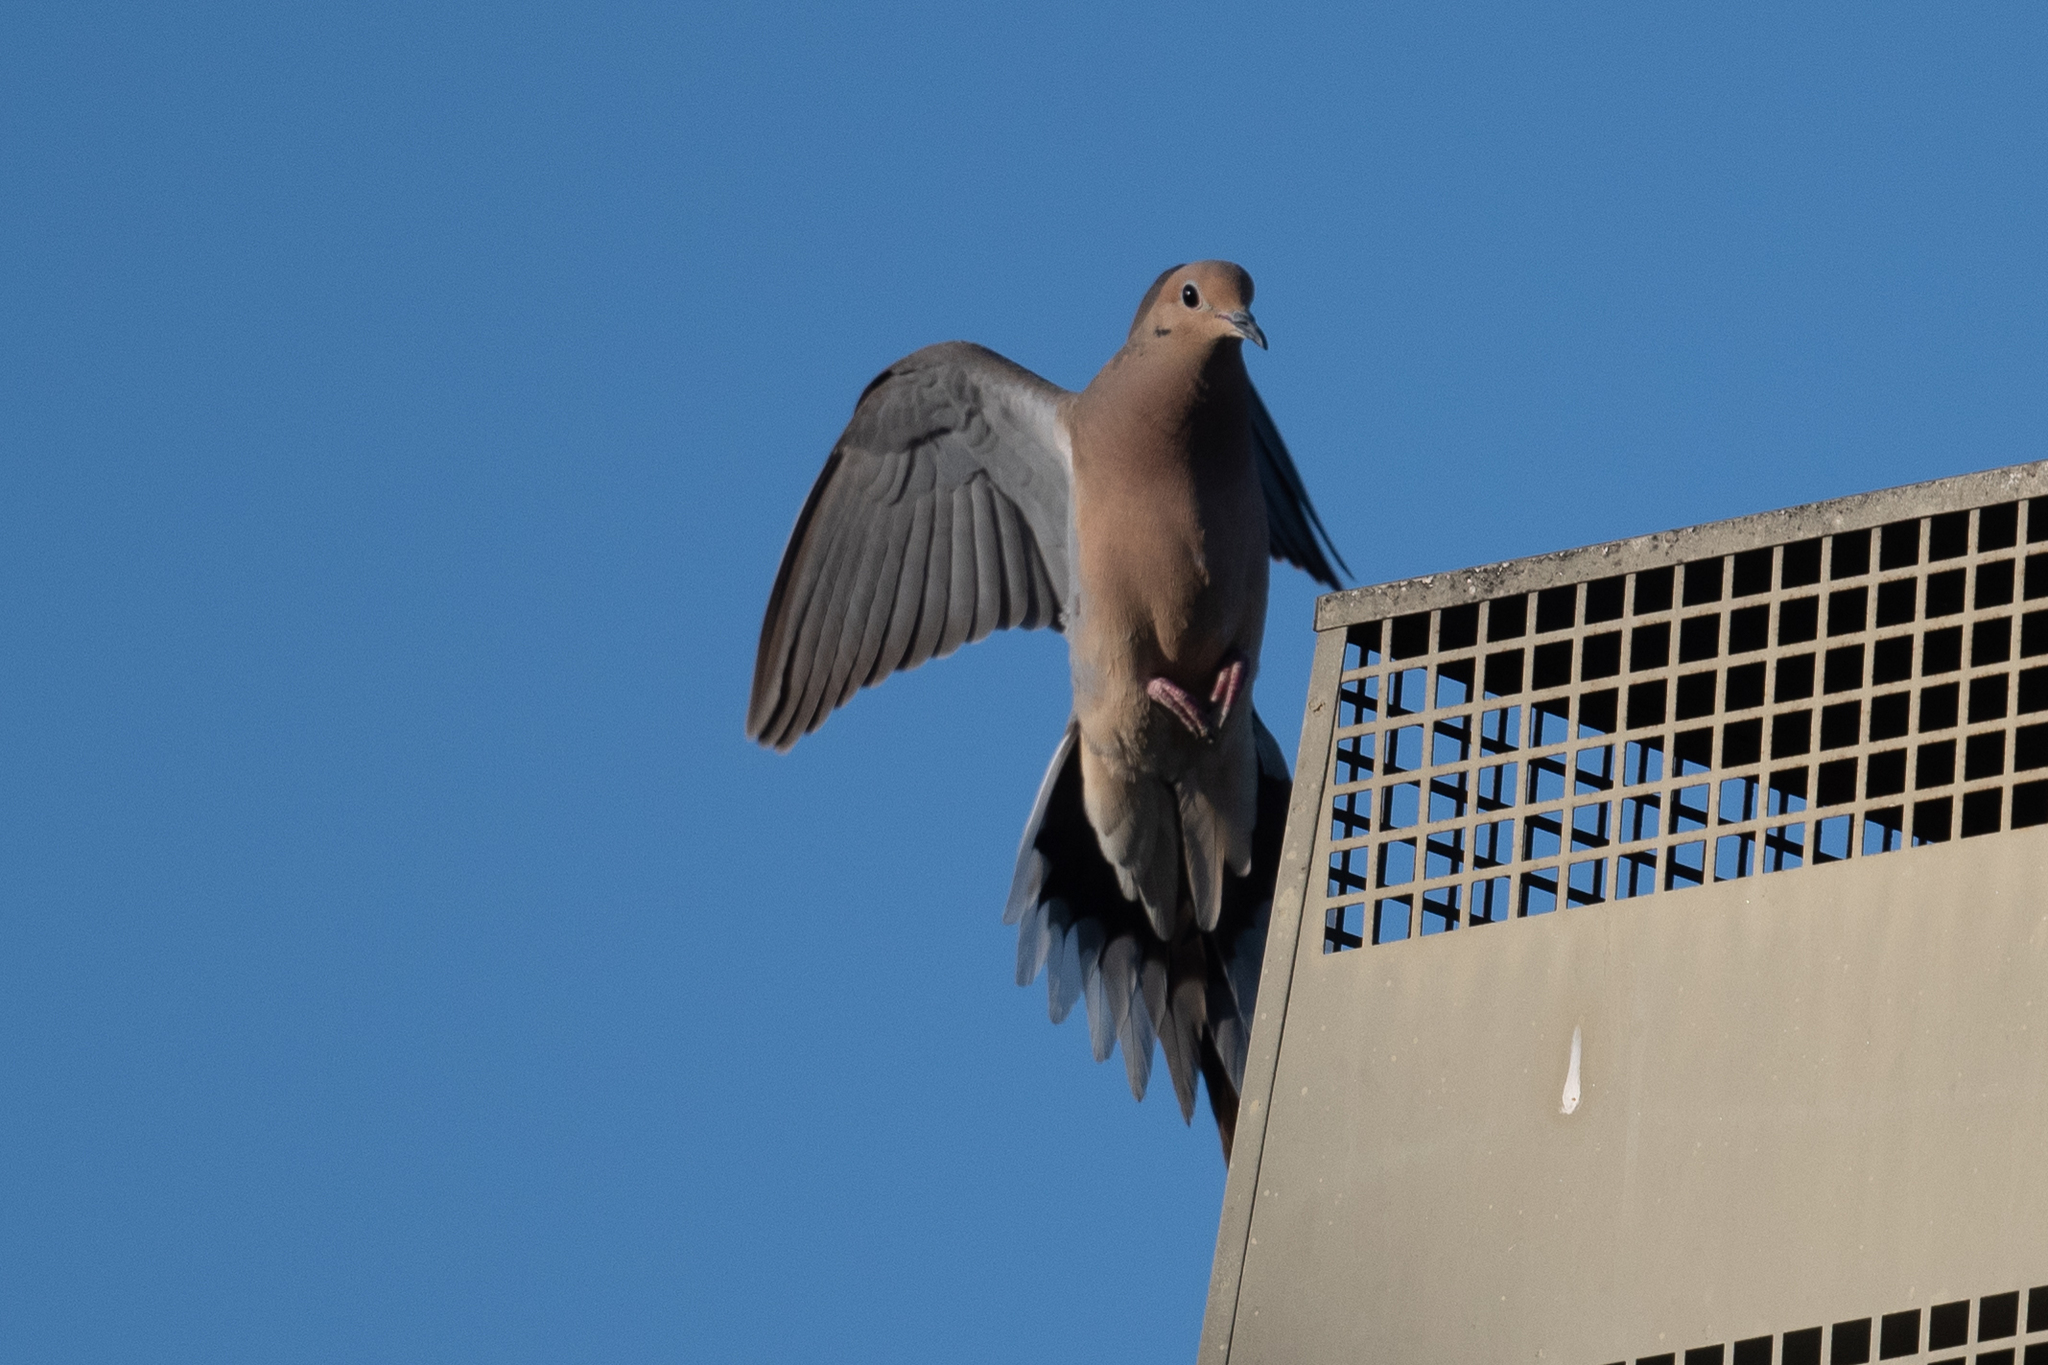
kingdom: Animalia
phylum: Chordata
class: Aves
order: Columbiformes
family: Columbidae
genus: Zenaida
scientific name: Zenaida macroura
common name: Mourning dove
